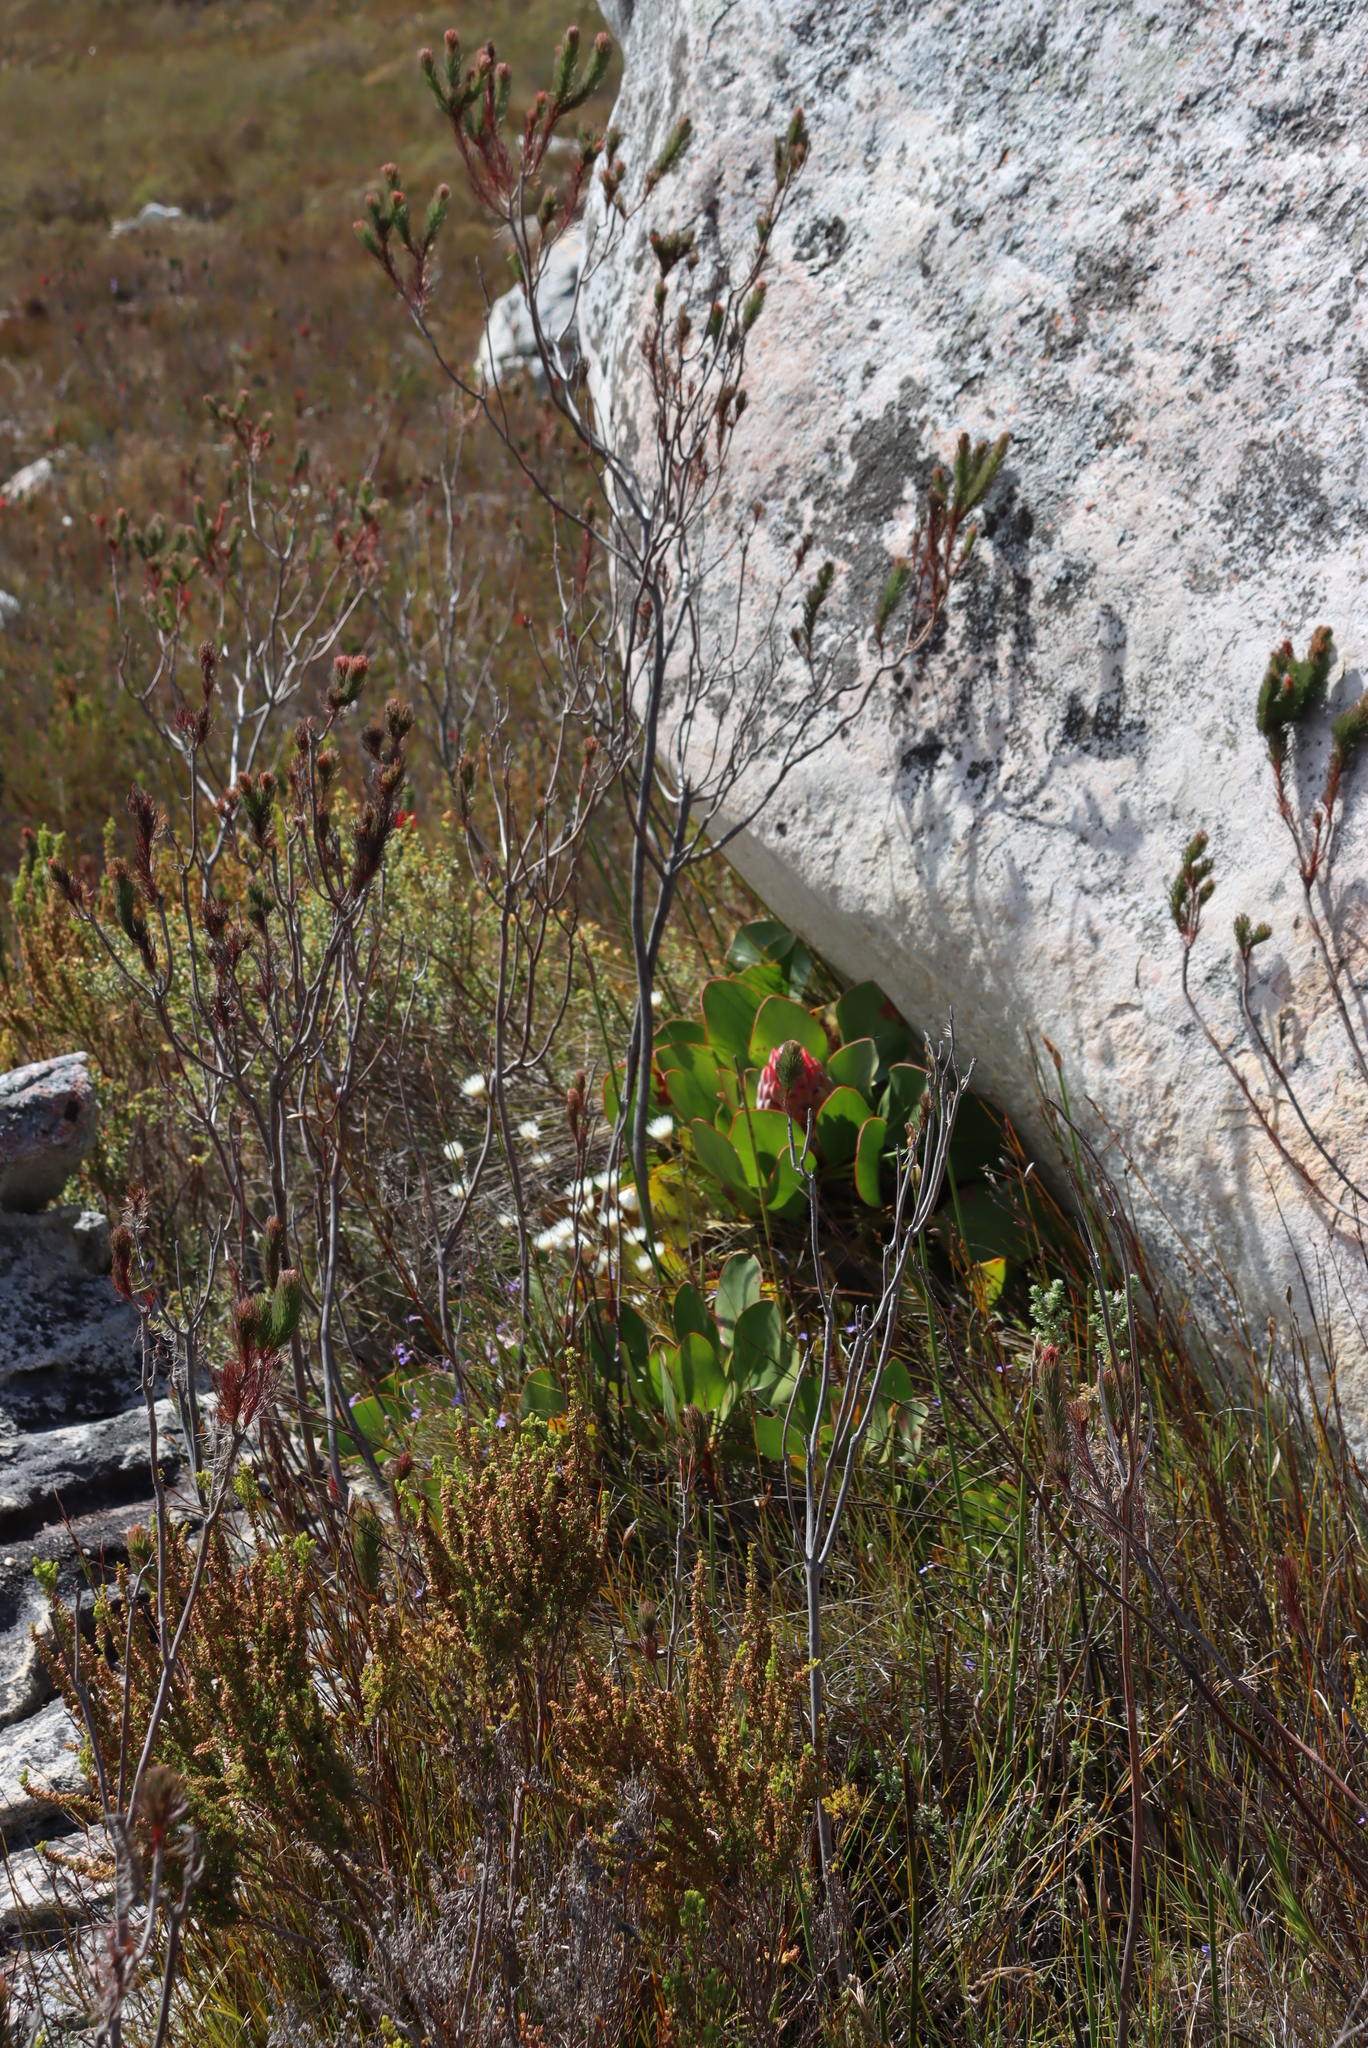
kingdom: Plantae
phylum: Tracheophyta
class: Magnoliopsida
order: Proteales
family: Proteaceae
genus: Protea
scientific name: Protea cynaroides
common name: King protea
